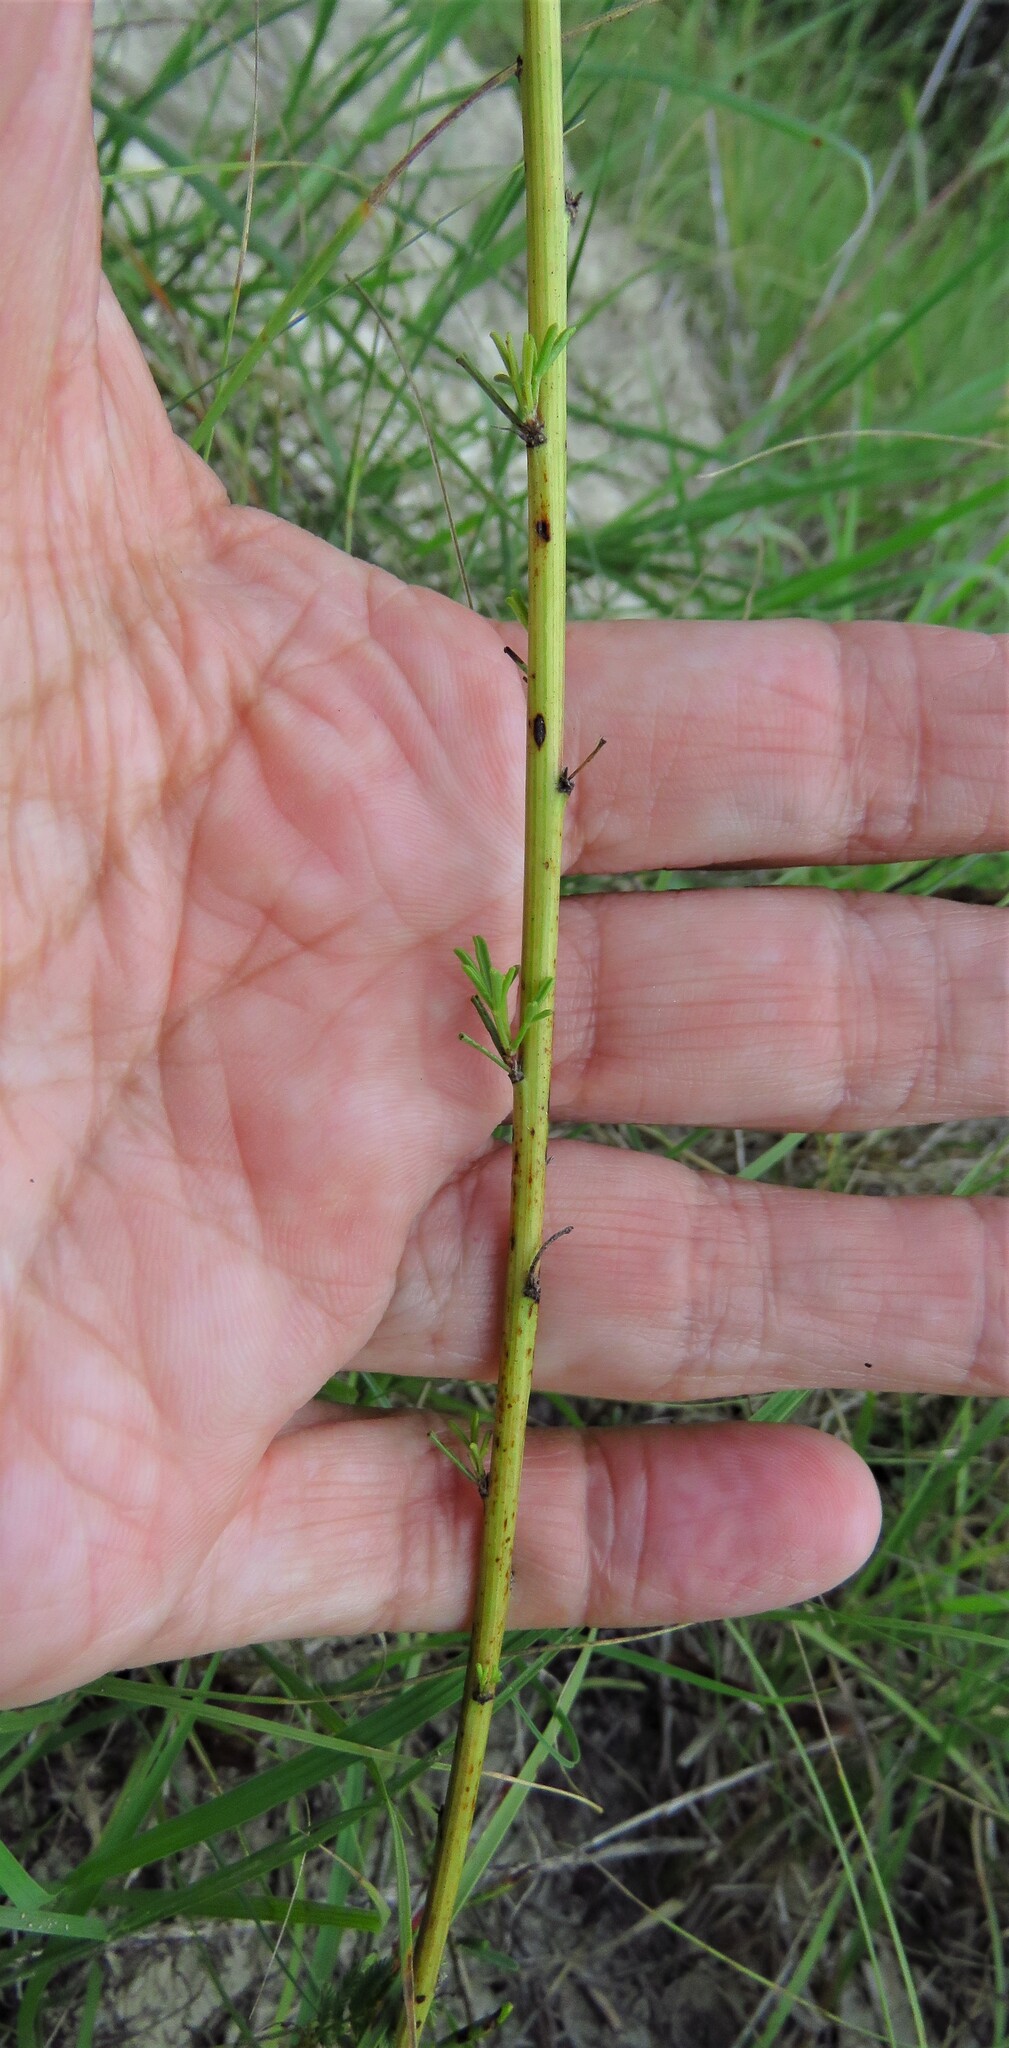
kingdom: Plantae
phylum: Tracheophyta
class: Magnoliopsida
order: Asterales
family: Asteraceae
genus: Ratibida
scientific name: Ratibida columnifera
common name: Prairie coneflower
